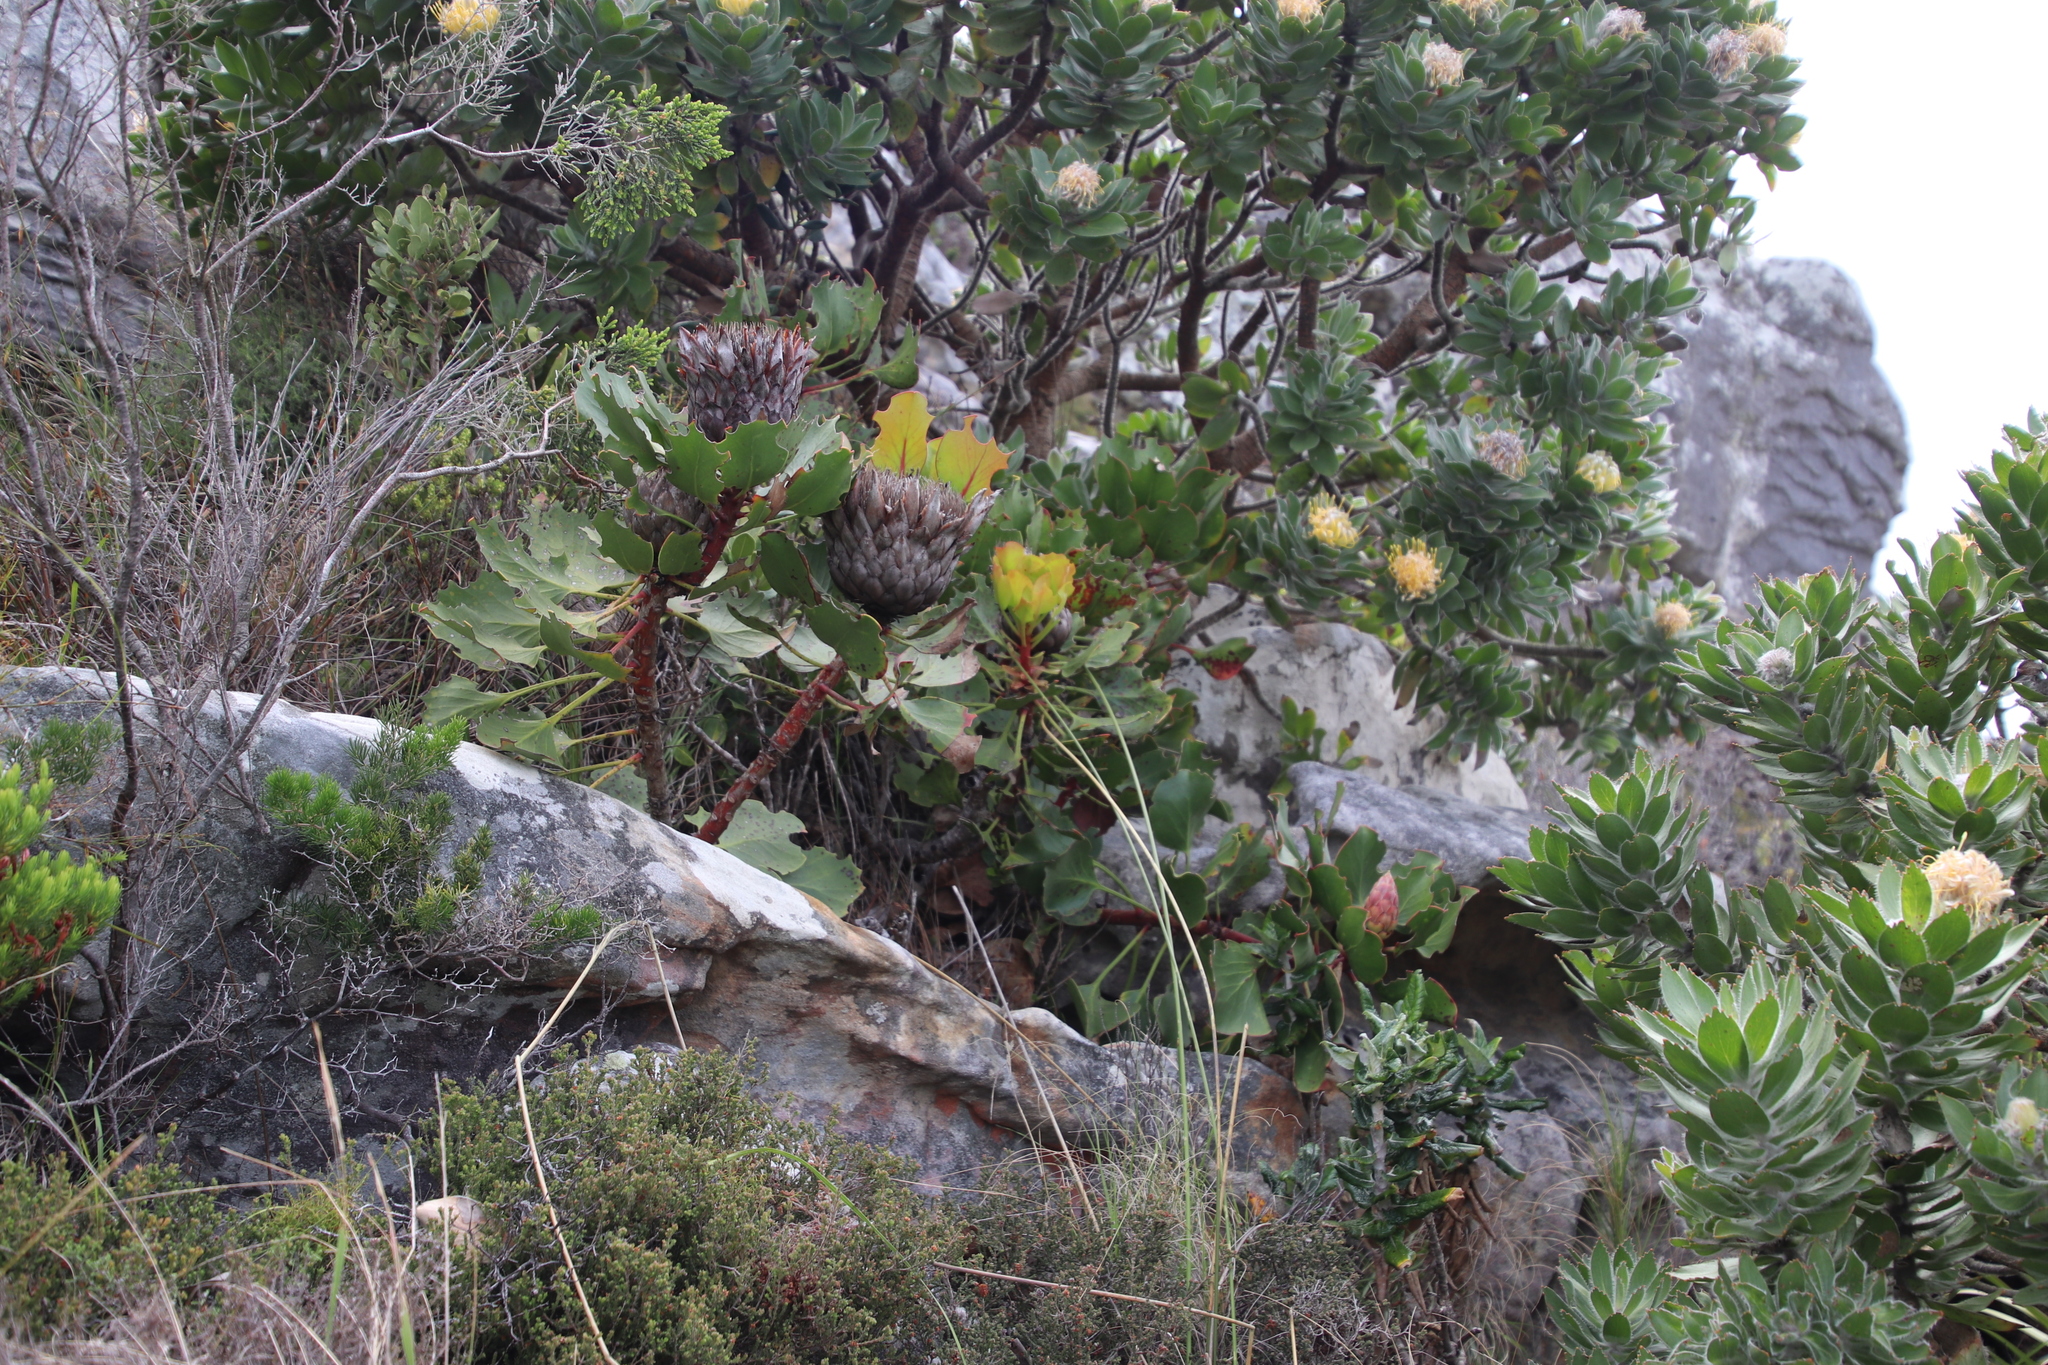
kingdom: Plantae
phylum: Tracheophyta
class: Magnoliopsida
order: Proteales
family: Proteaceae
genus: Protea
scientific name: Protea cynaroides
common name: King protea
